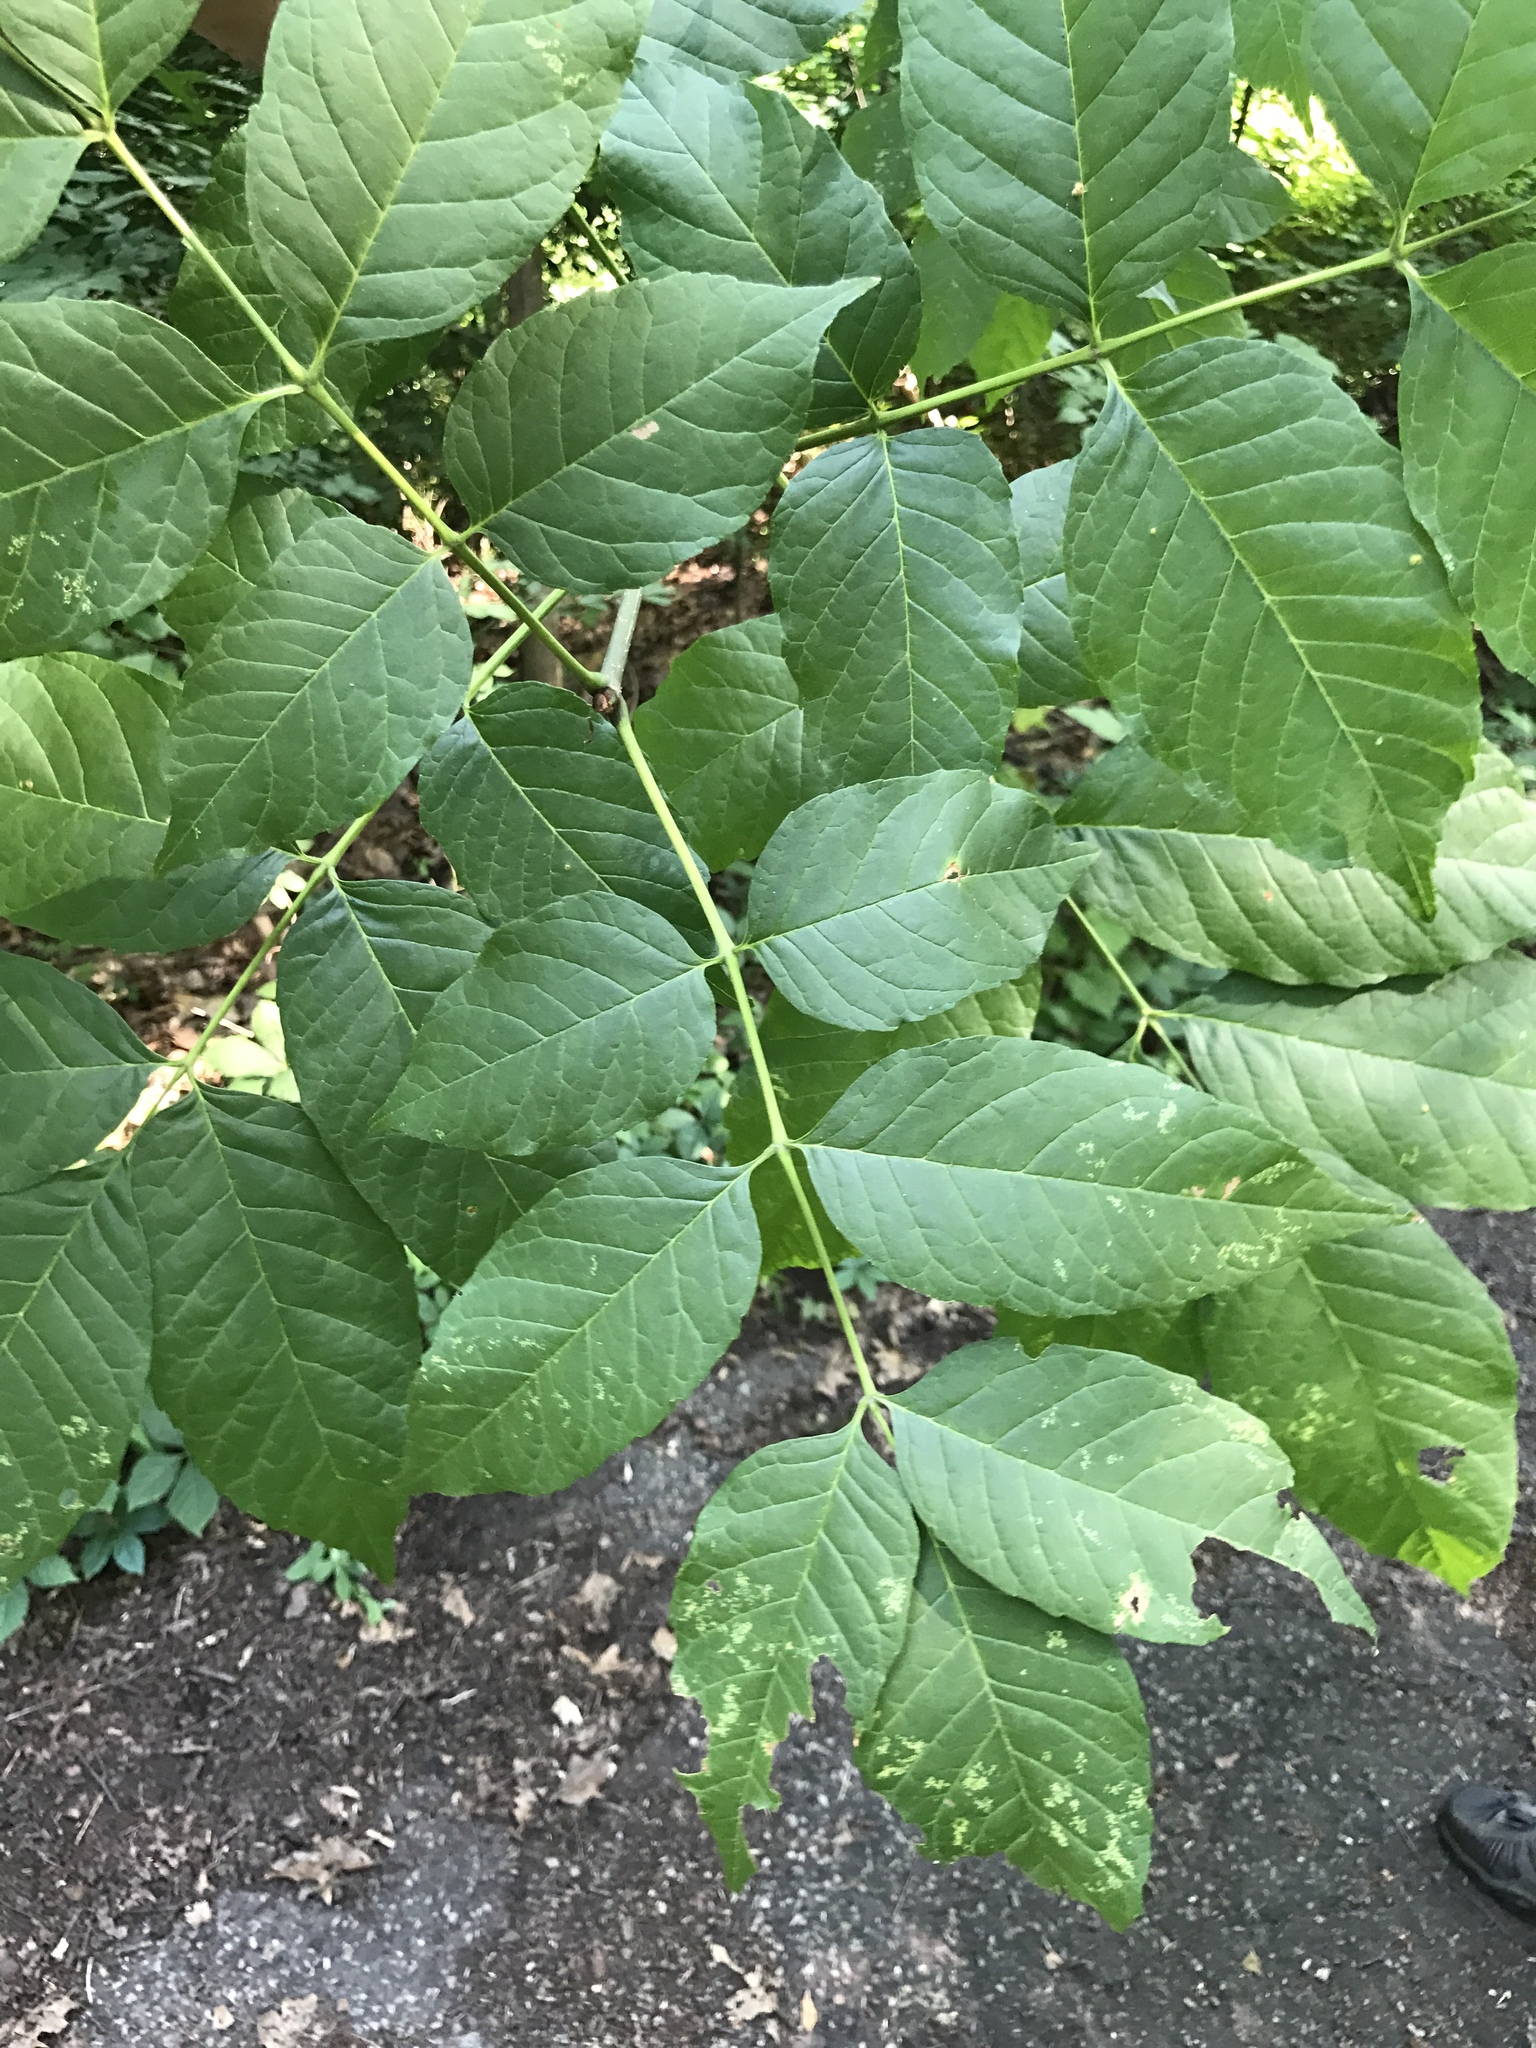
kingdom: Plantae
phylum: Tracheophyta
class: Magnoliopsida
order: Lamiales
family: Oleaceae
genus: Fraxinus
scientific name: Fraxinus americana
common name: White ash
